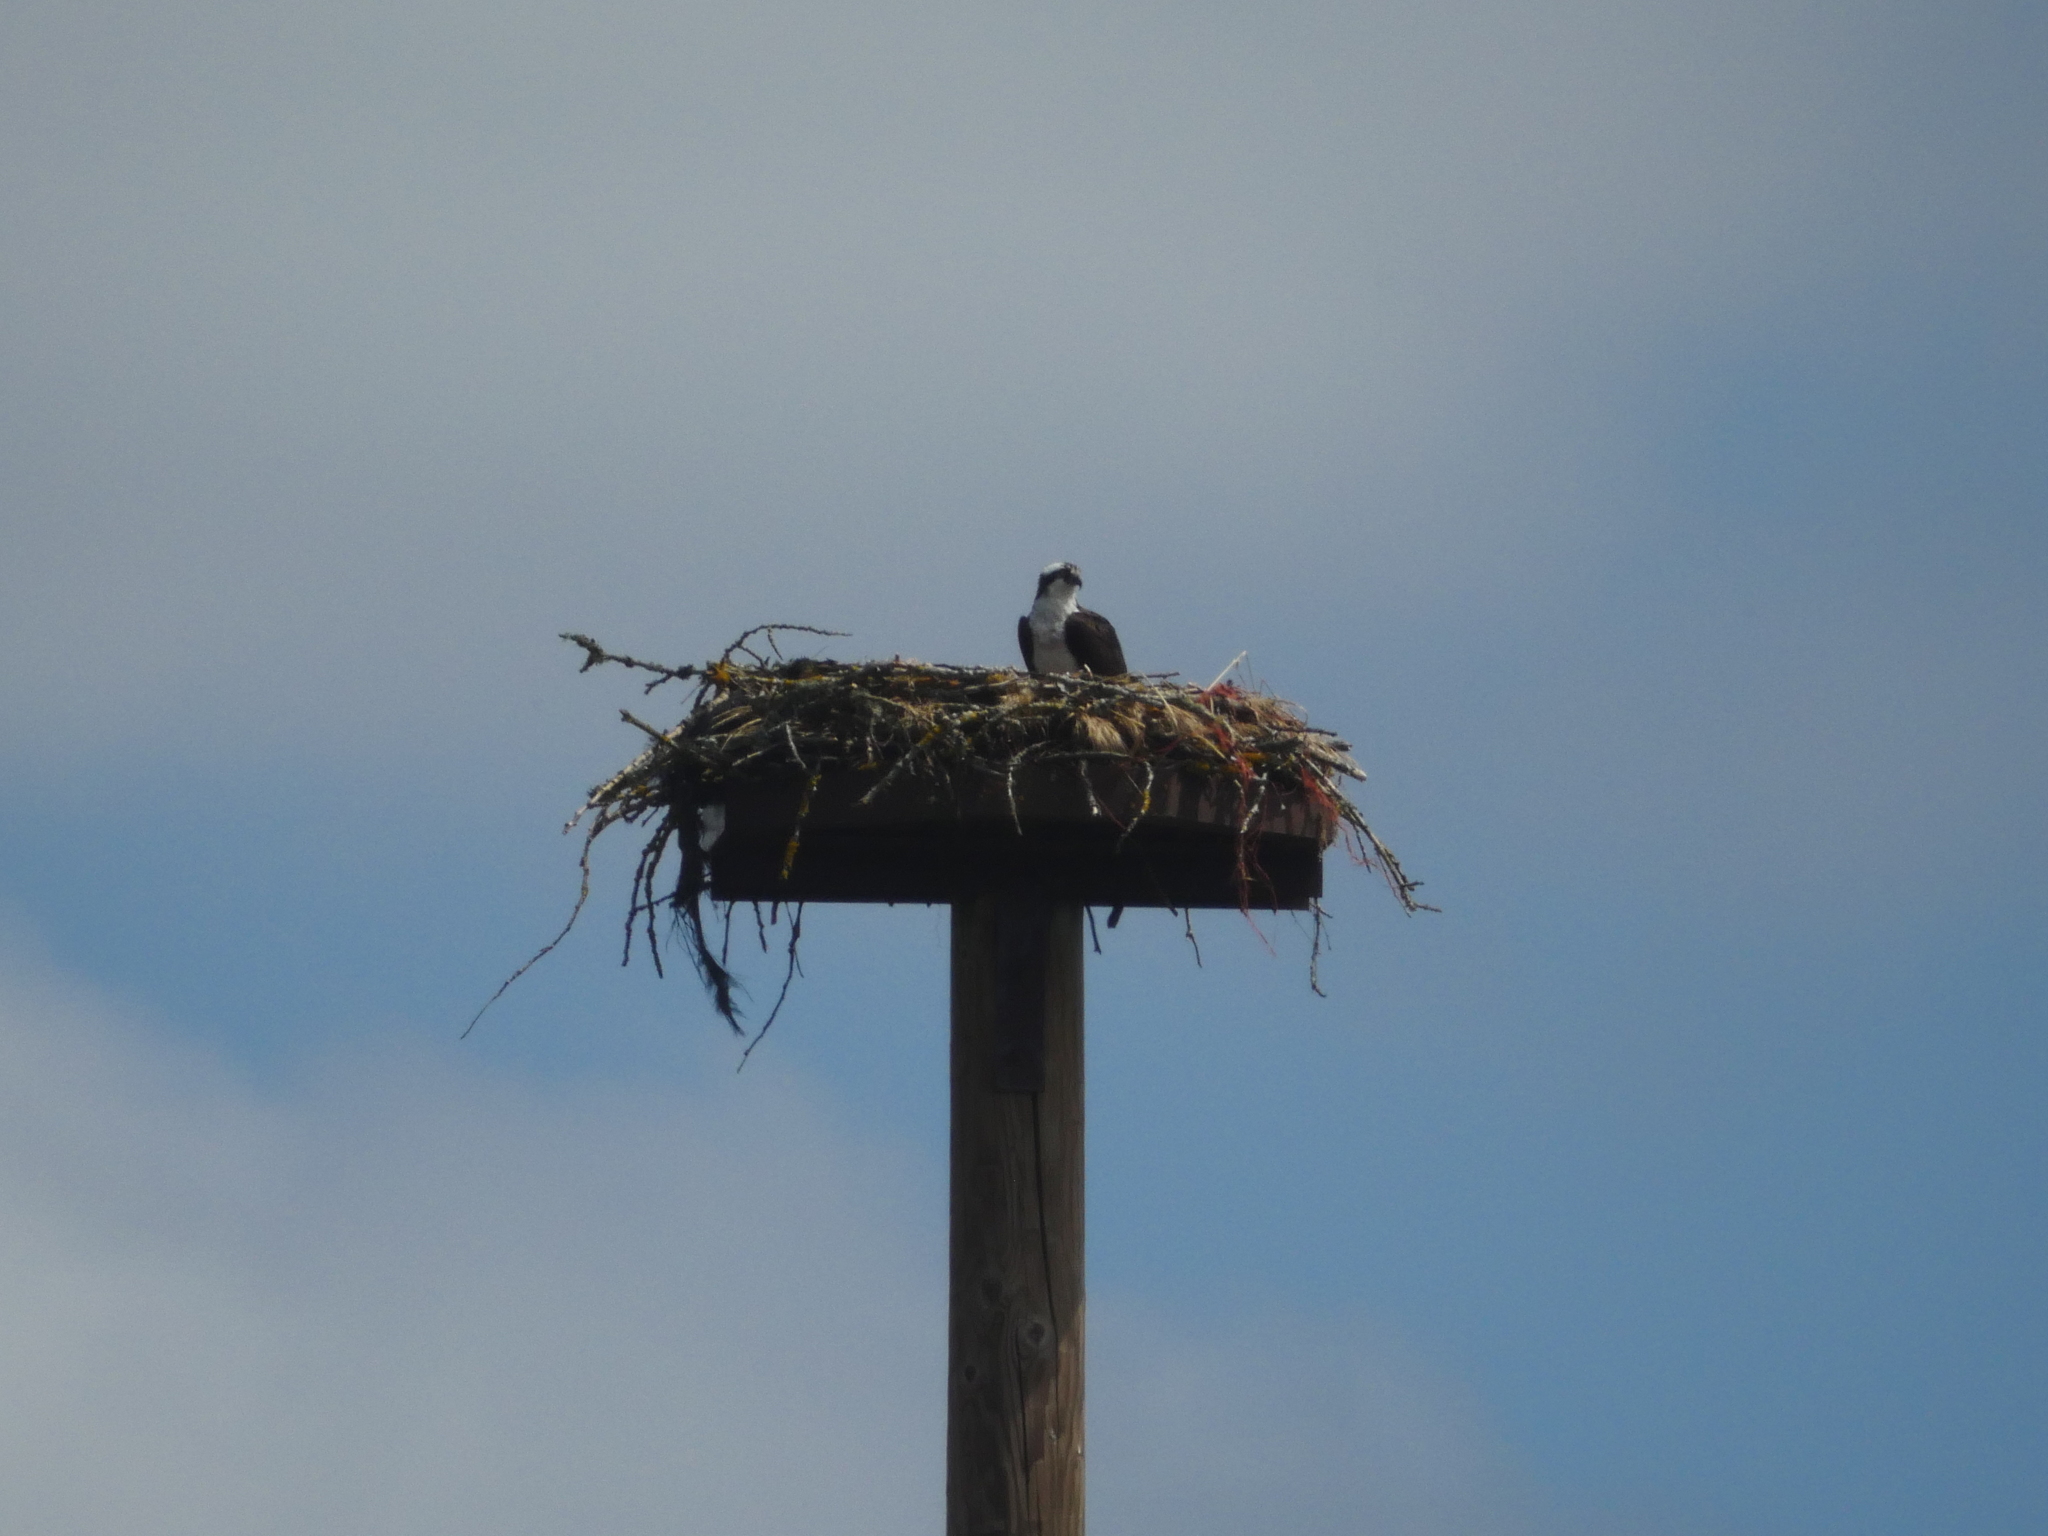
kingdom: Animalia
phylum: Chordata
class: Aves
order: Accipitriformes
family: Pandionidae
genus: Pandion
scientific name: Pandion haliaetus
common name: Osprey
